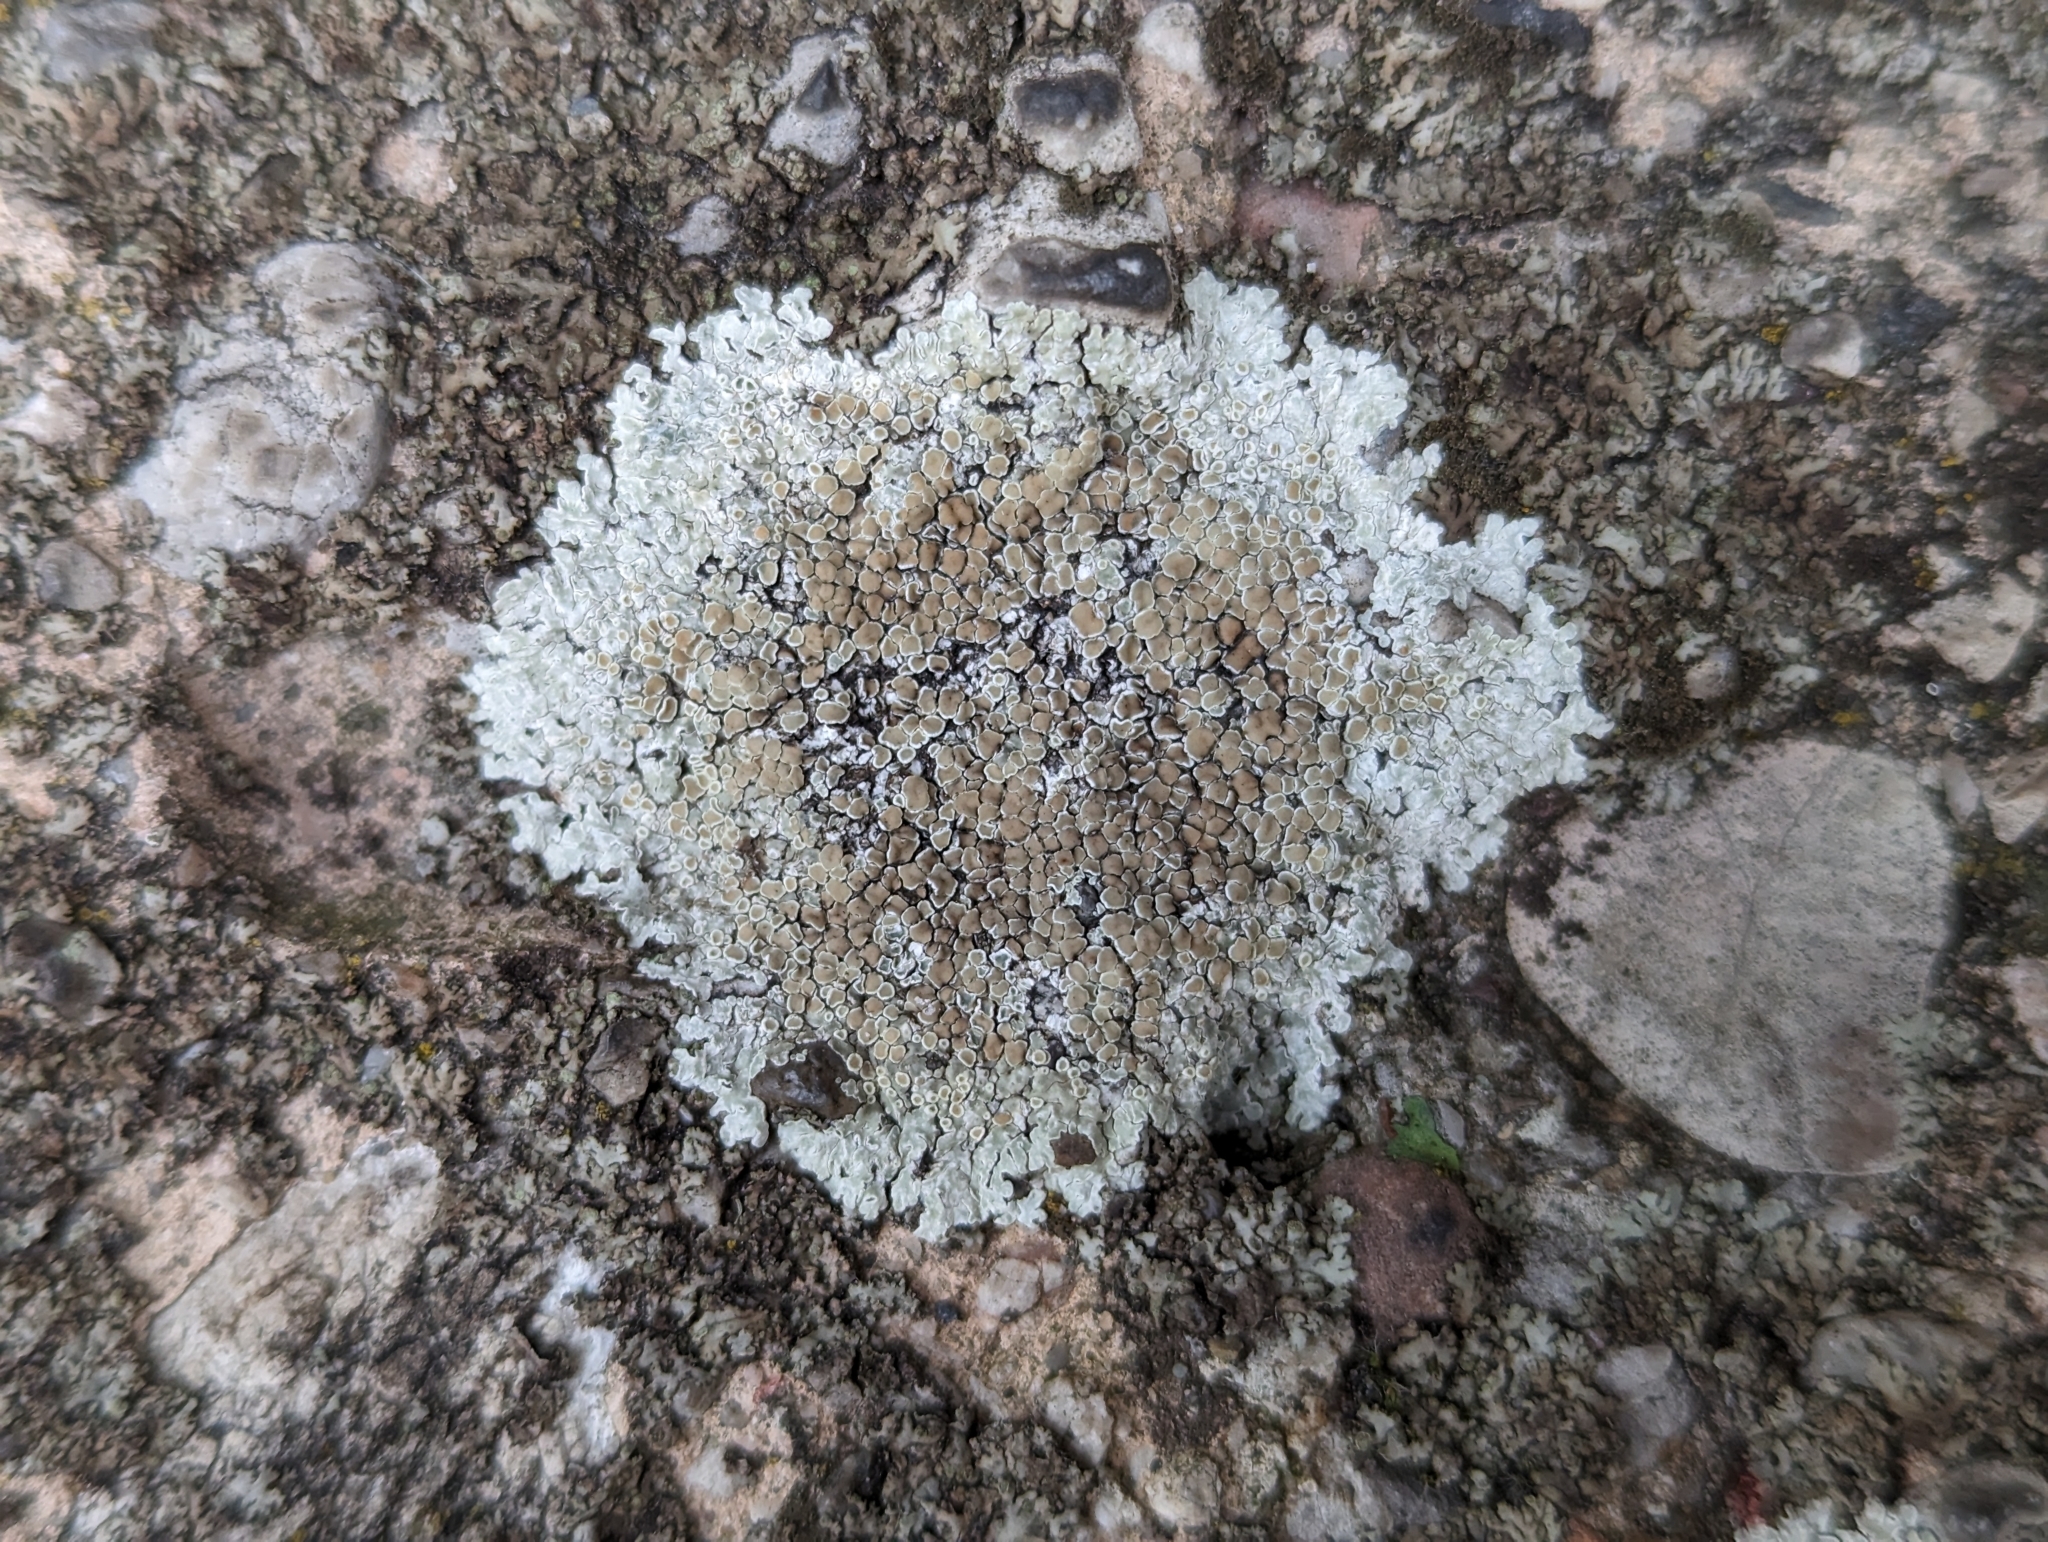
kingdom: Fungi
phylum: Ascomycota
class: Lecanoromycetes
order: Lecanorales
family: Lecanoraceae
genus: Protoparmeliopsis
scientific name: Protoparmeliopsis muralis
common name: Stonewall rim lichen
